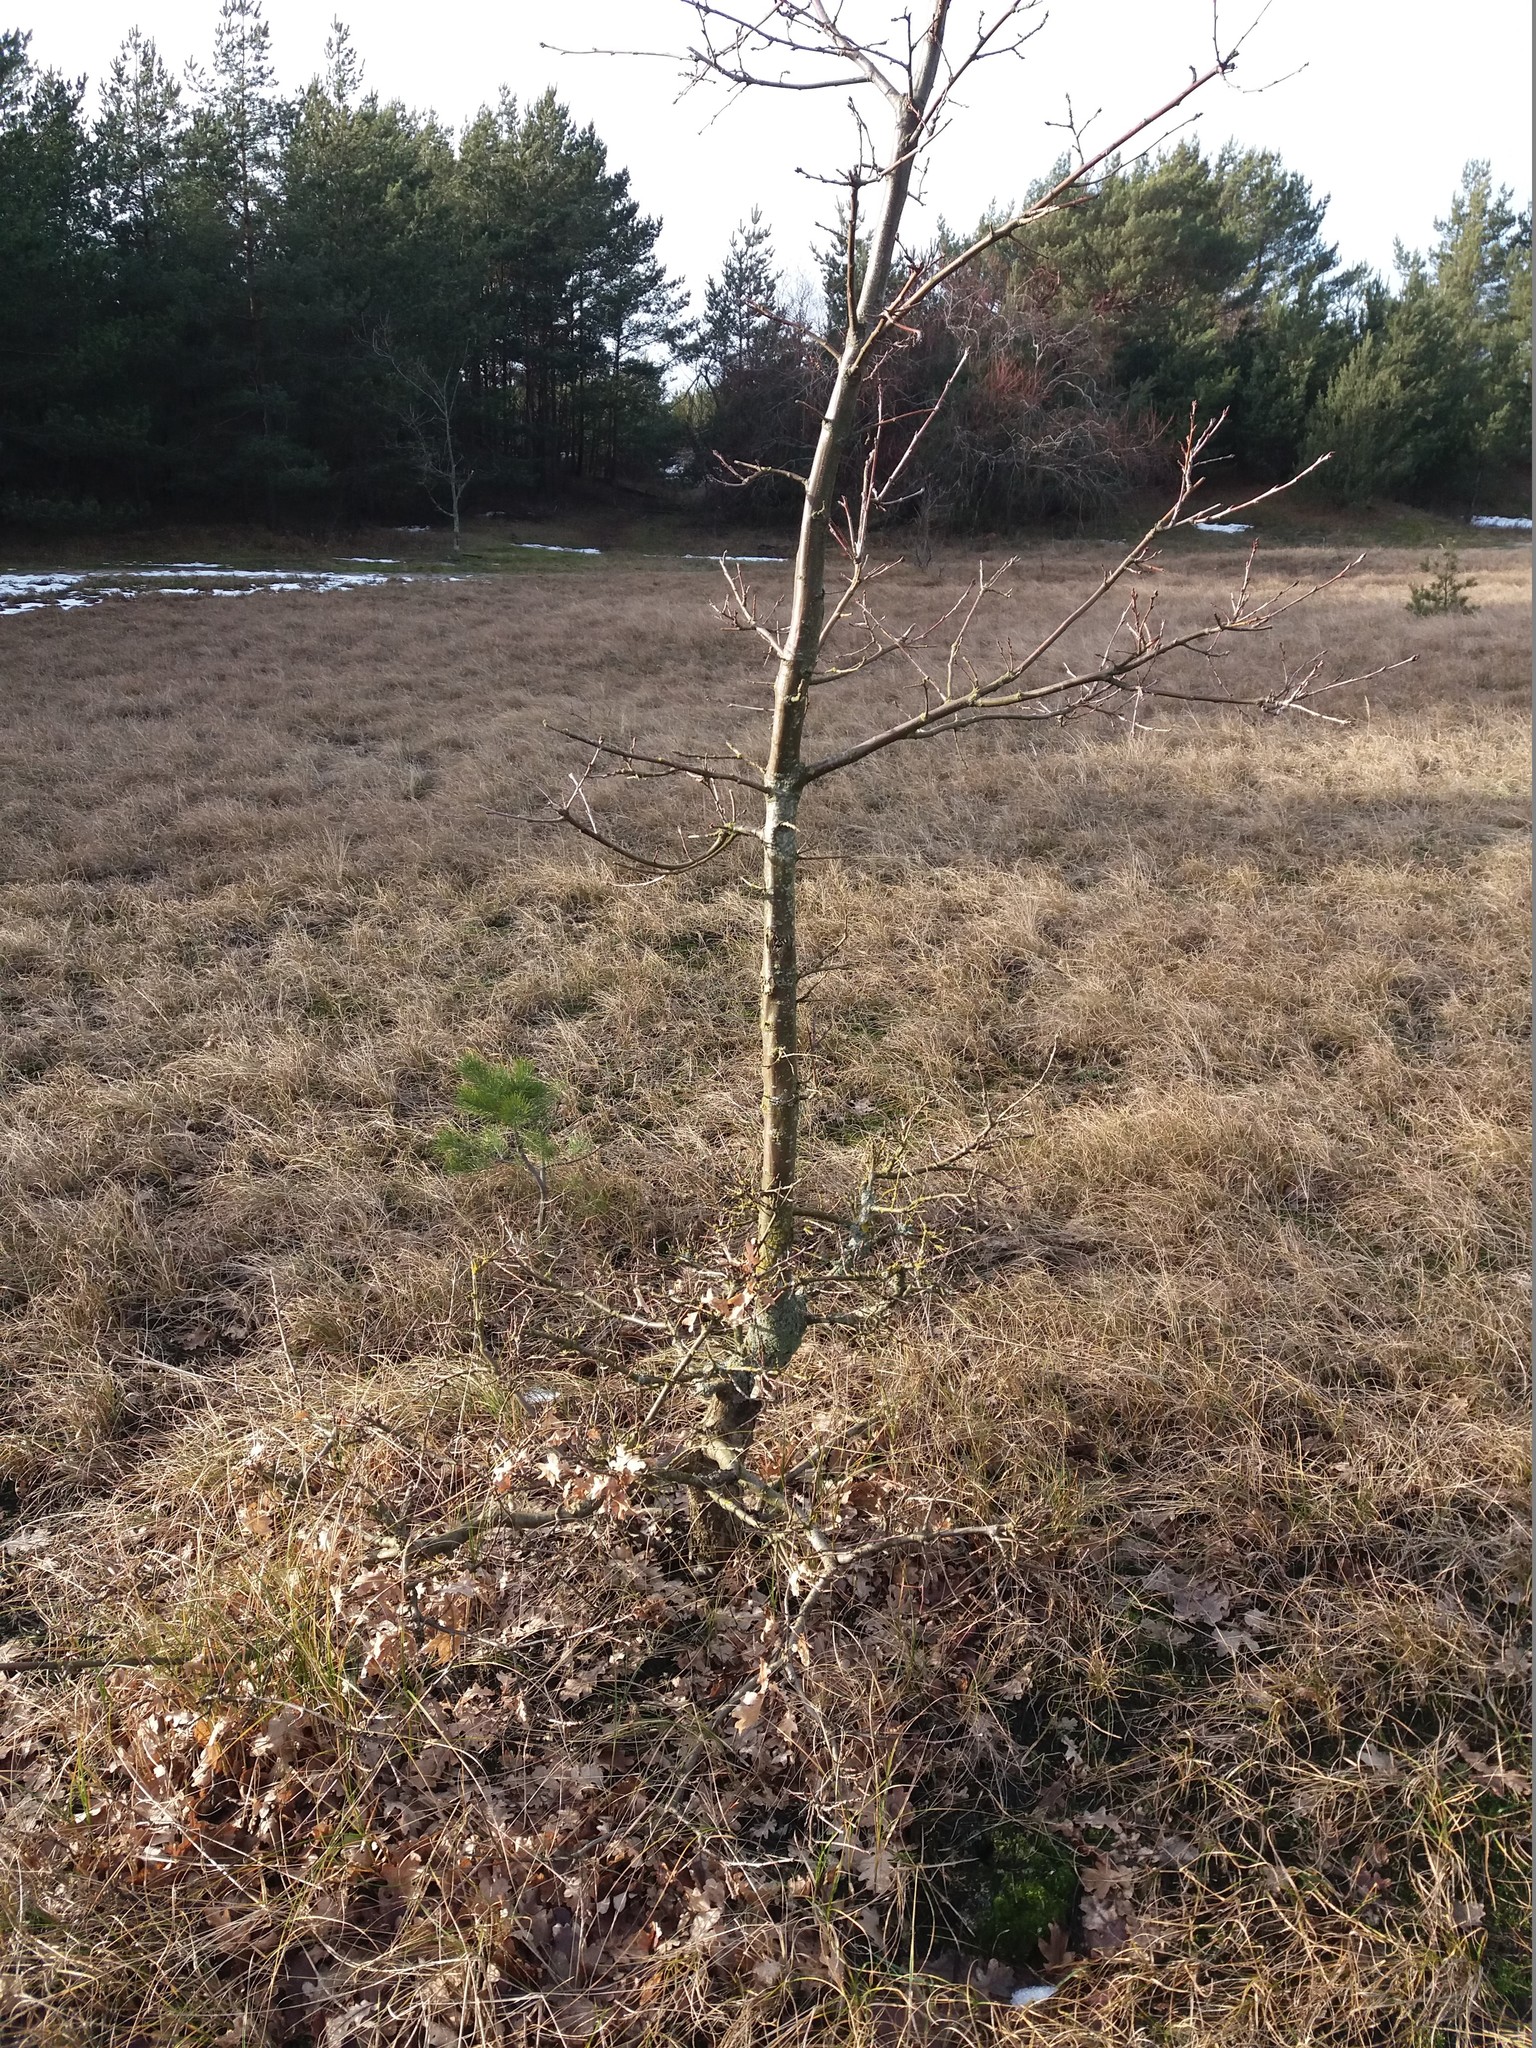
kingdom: Plantae
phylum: Tracheophyta
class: Magnoliopsida
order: Fagales
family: Fagaceae
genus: Quercus
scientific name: Quercus robur
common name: Pedunculate oak
